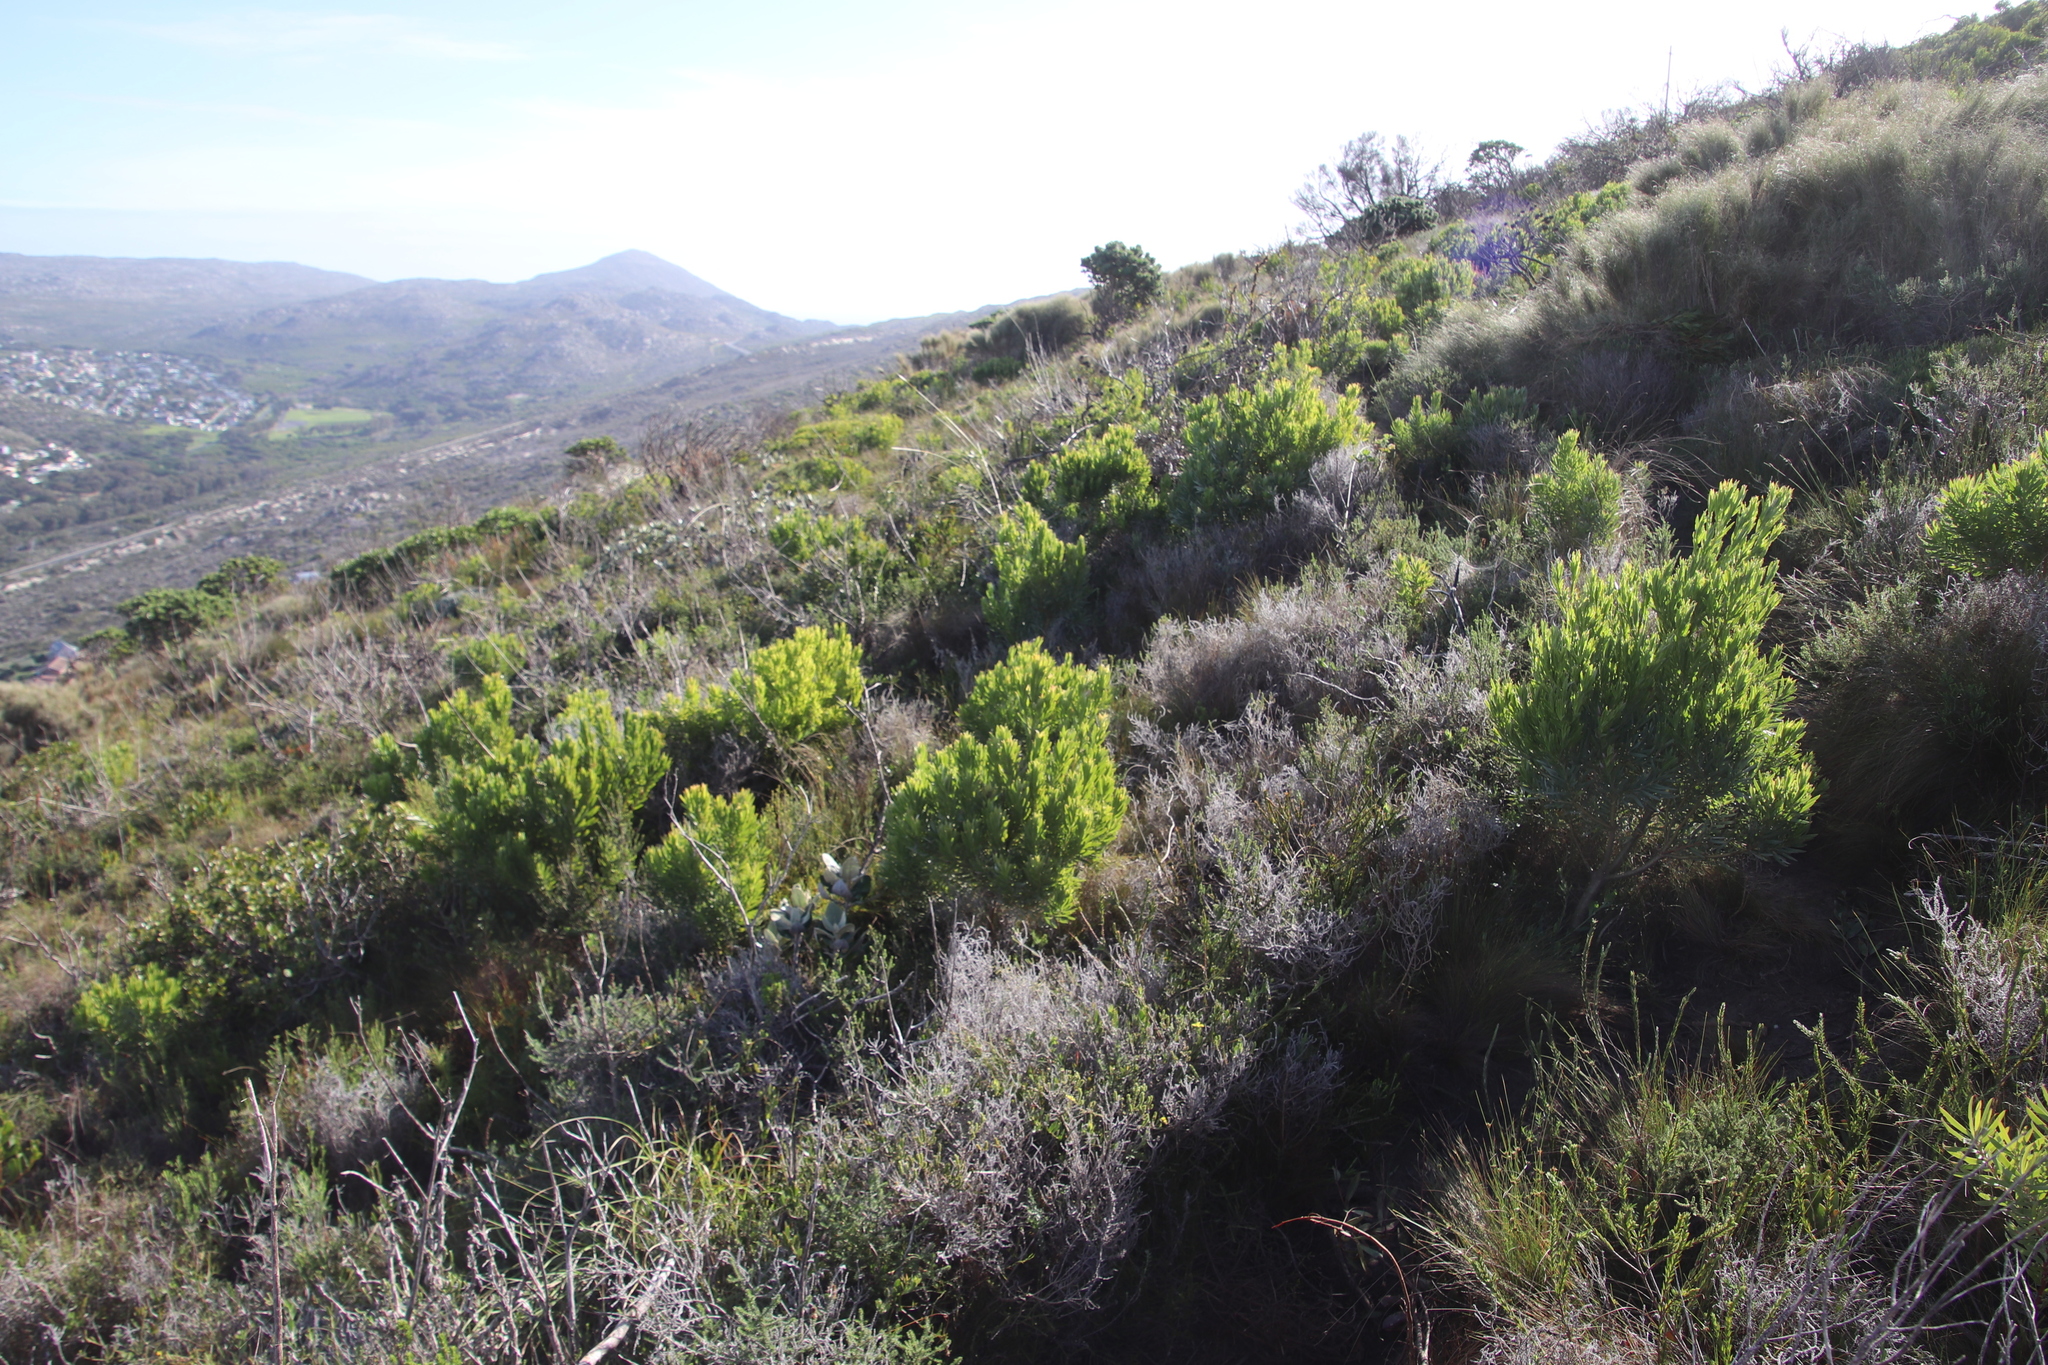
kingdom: Plantae
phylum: Tracheophyta
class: Magnoliopsida
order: Proteales
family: Proteaceae
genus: Leucadendron
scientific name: Leucadendron xanthoconus
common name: Sickle-leaf conebush
